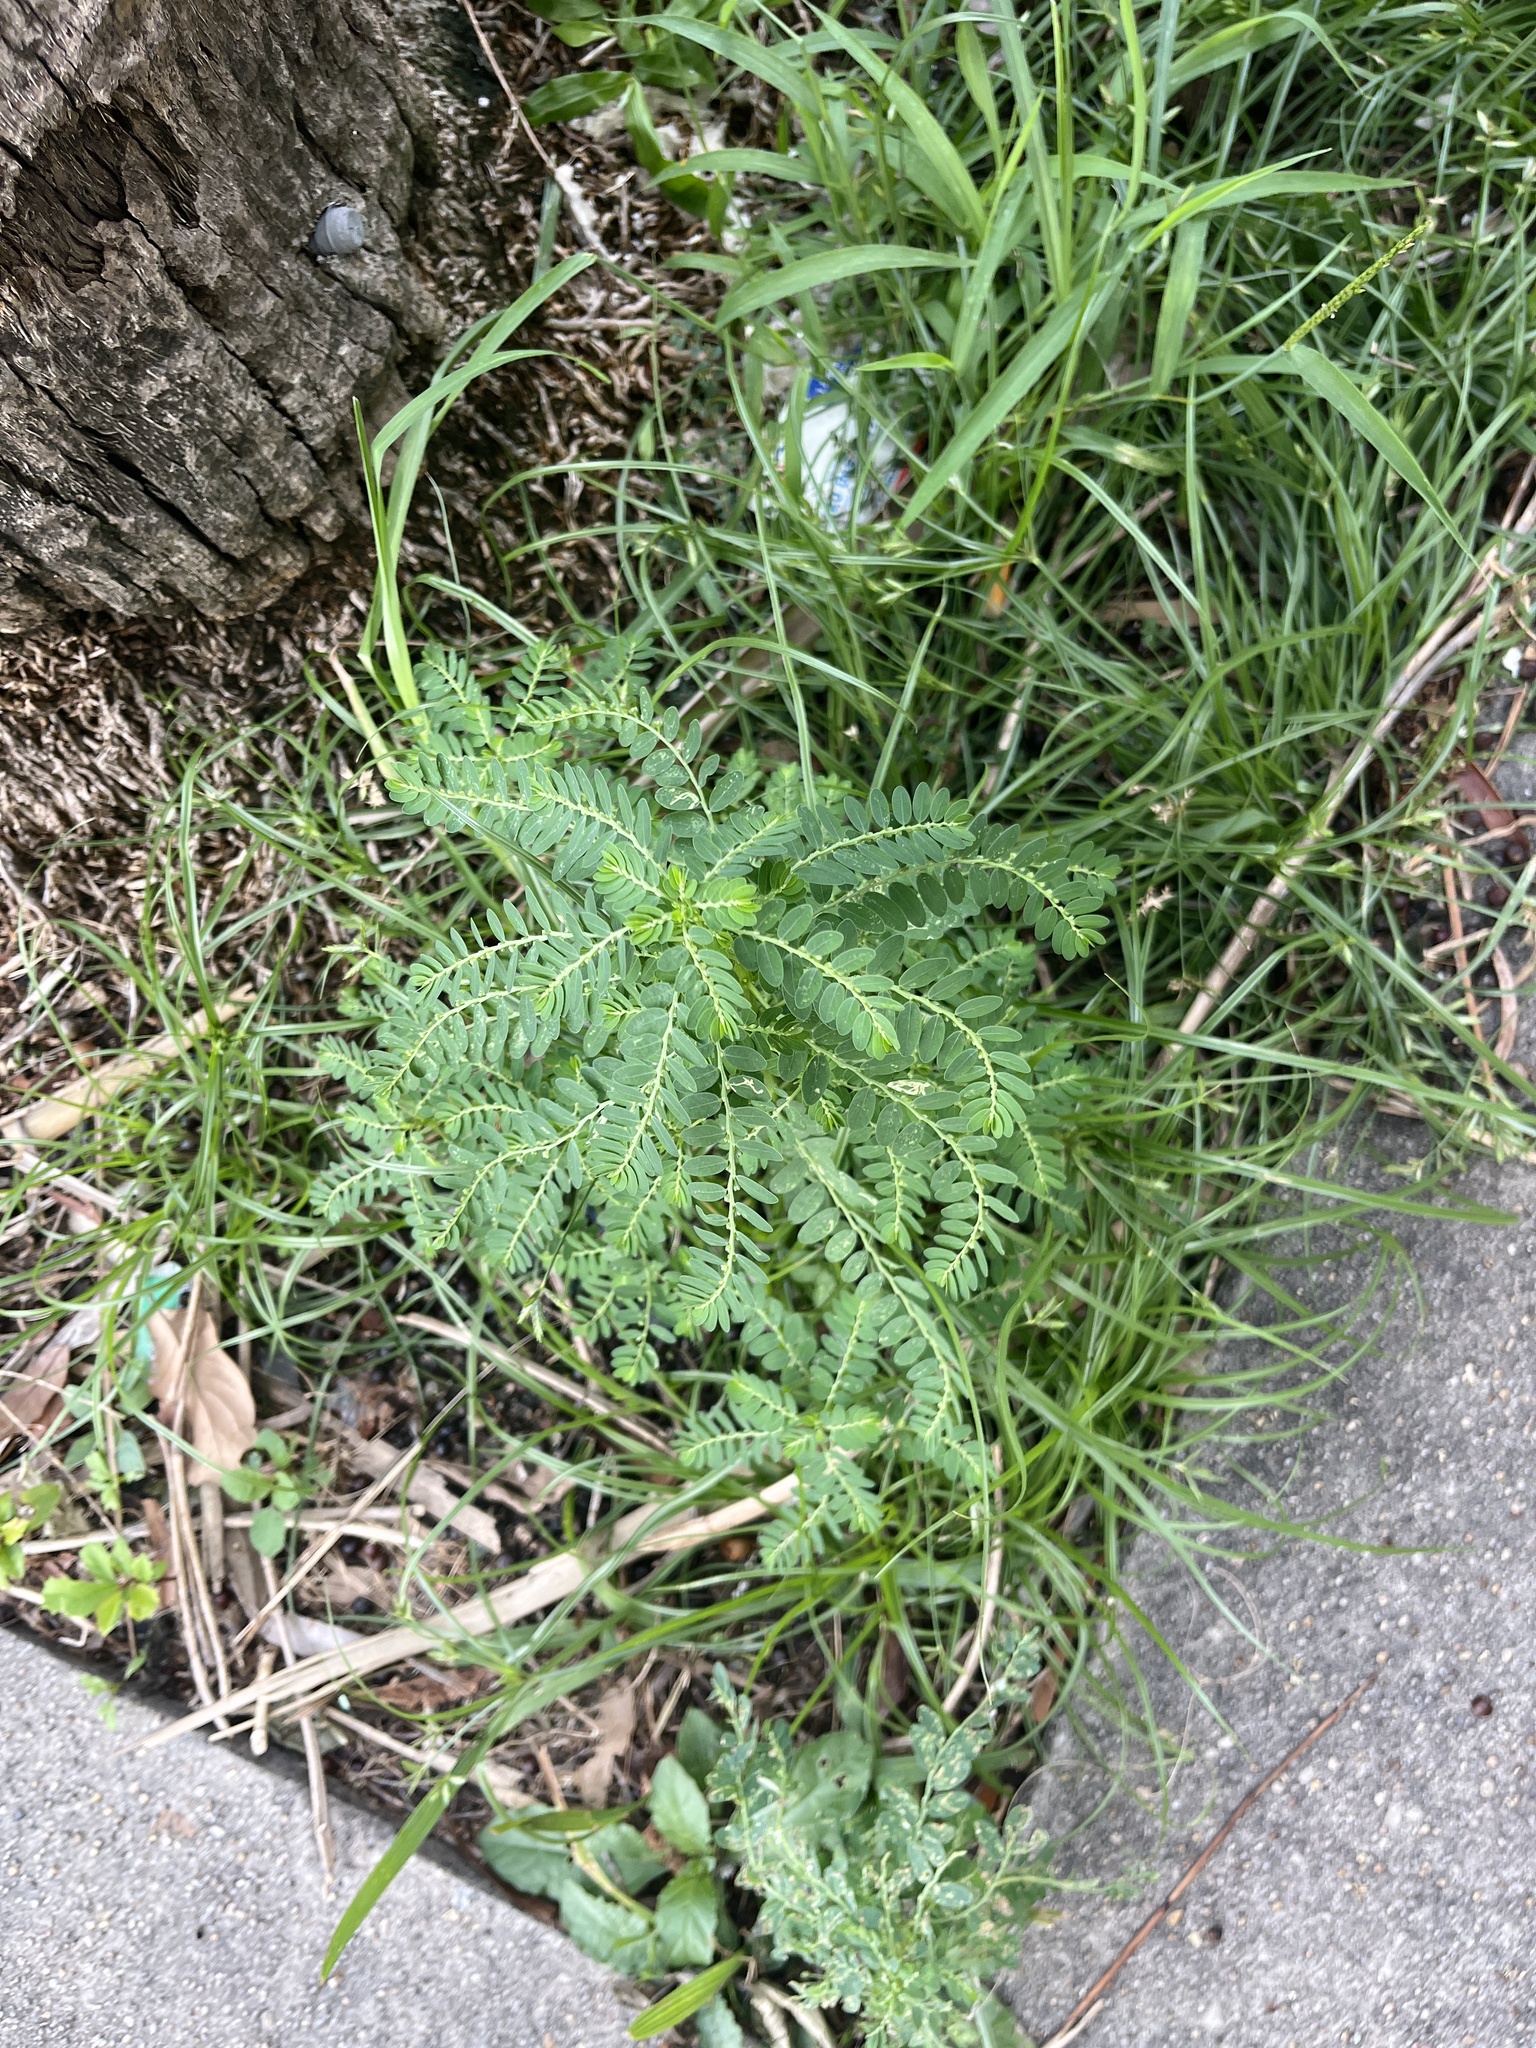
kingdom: Plantae
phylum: Tracheophyta
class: Magnoliopsida
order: Malpighiales
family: Phyllanthaceae
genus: Phyllanthus
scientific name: Phyllanthus urinaria
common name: Chamber bitter
